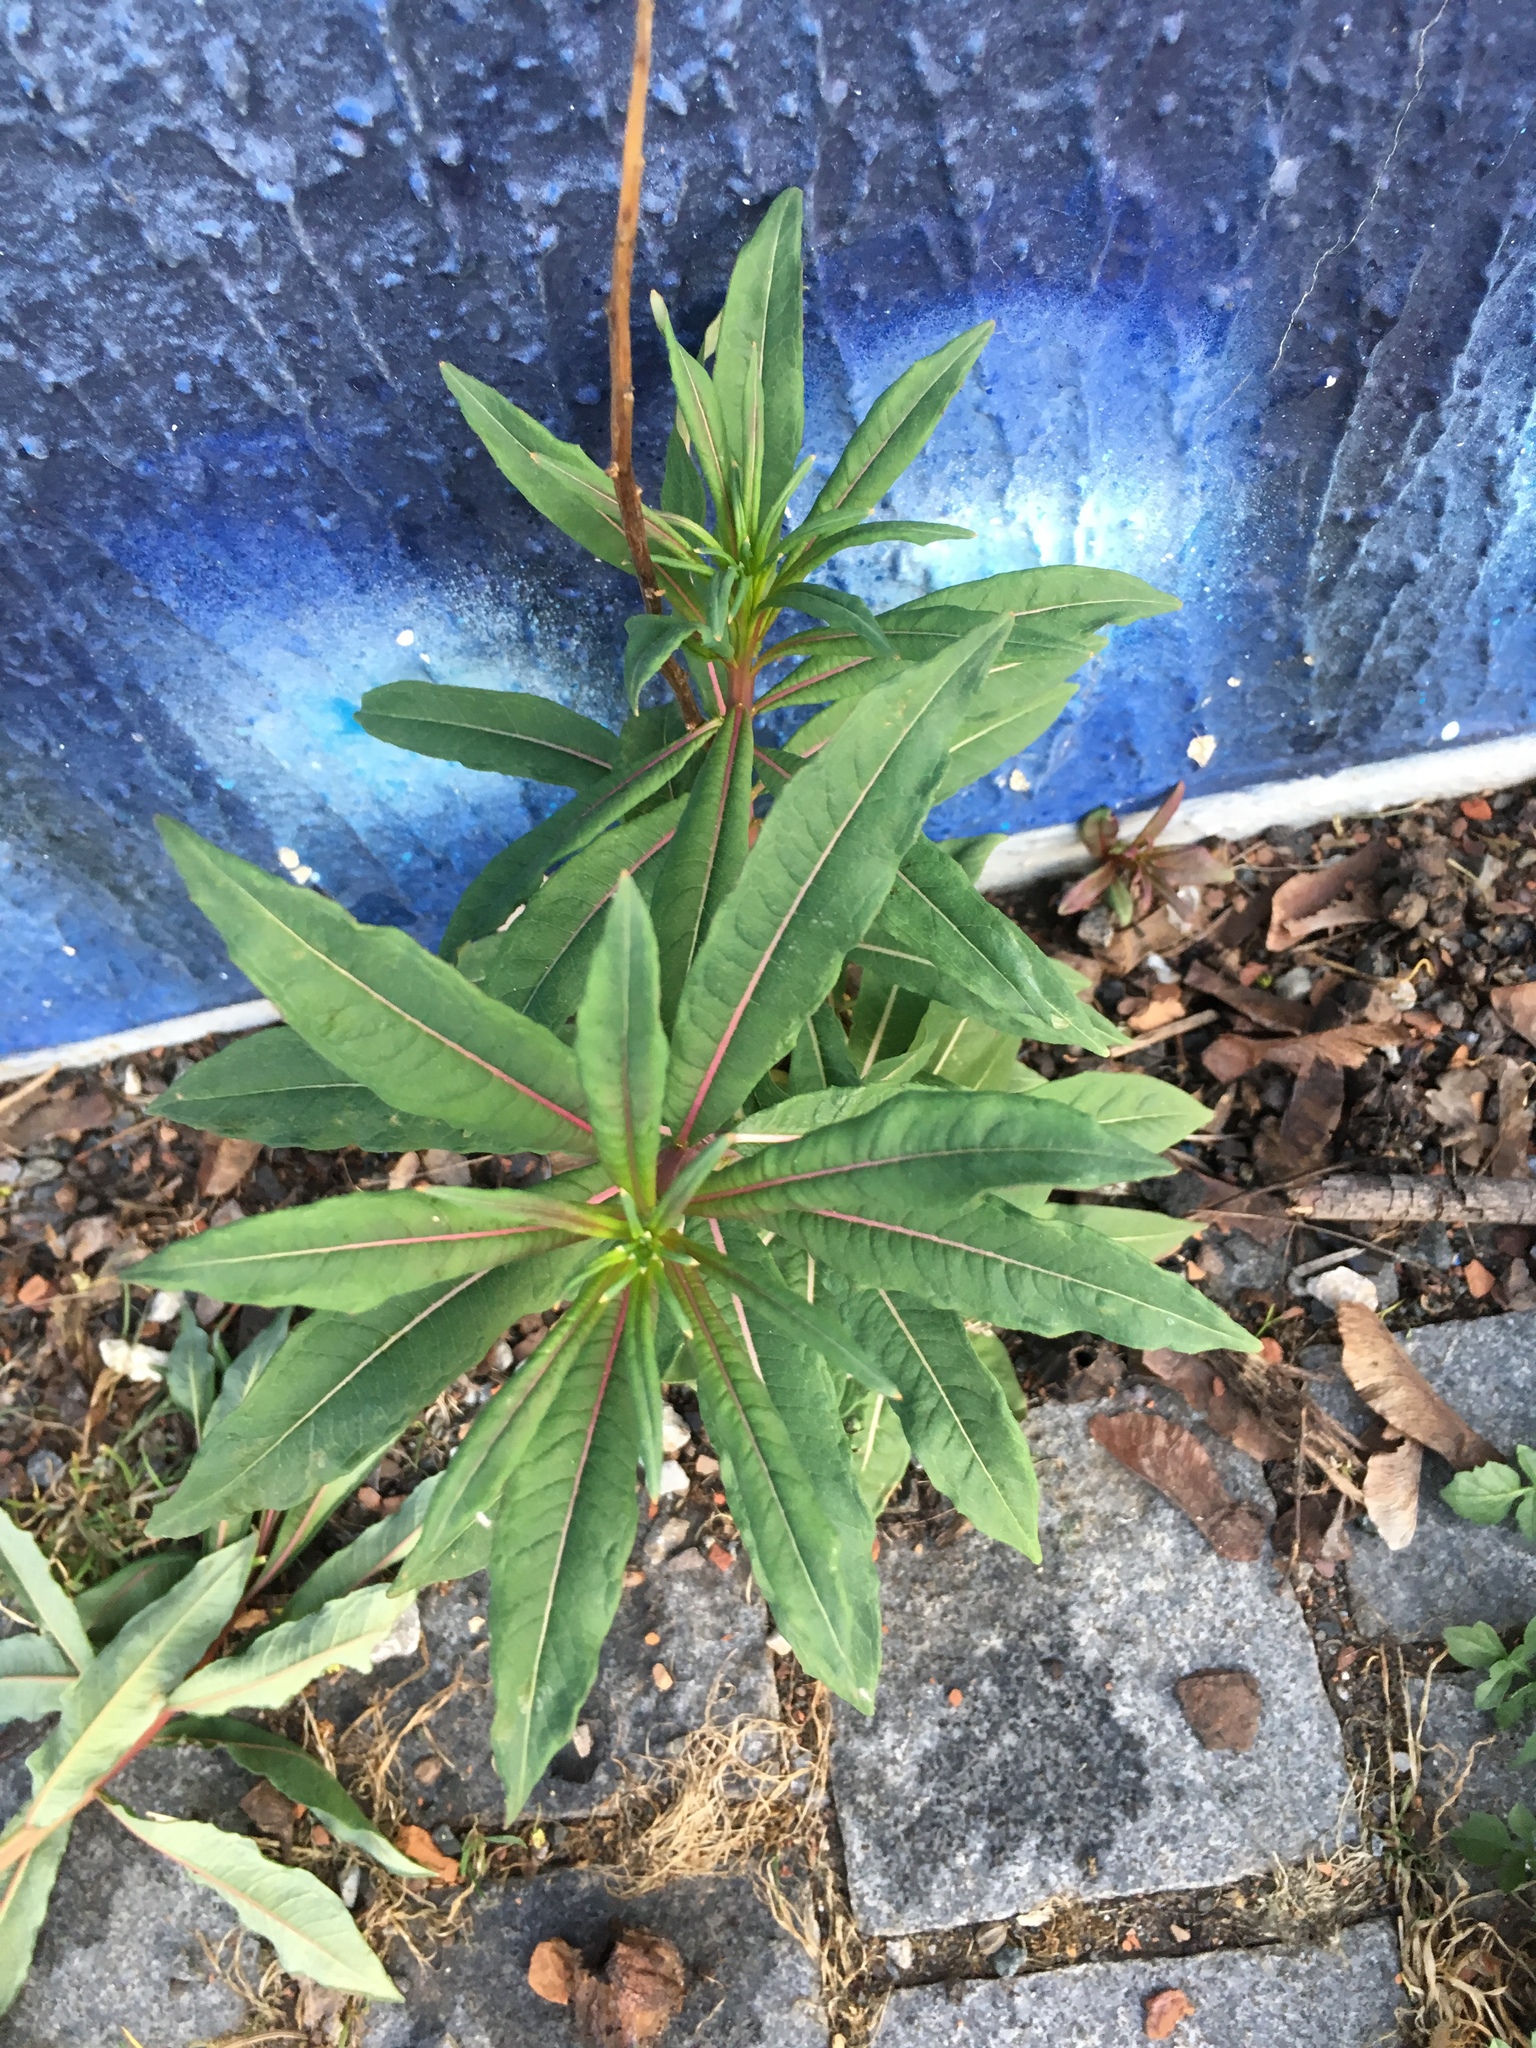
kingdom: Plantae
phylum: Tracheophyta
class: Magnoliopsida
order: Myrtales
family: Onagraceae
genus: Chamaenerion
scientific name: Chamaenerion angustifolium
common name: Fireweed
